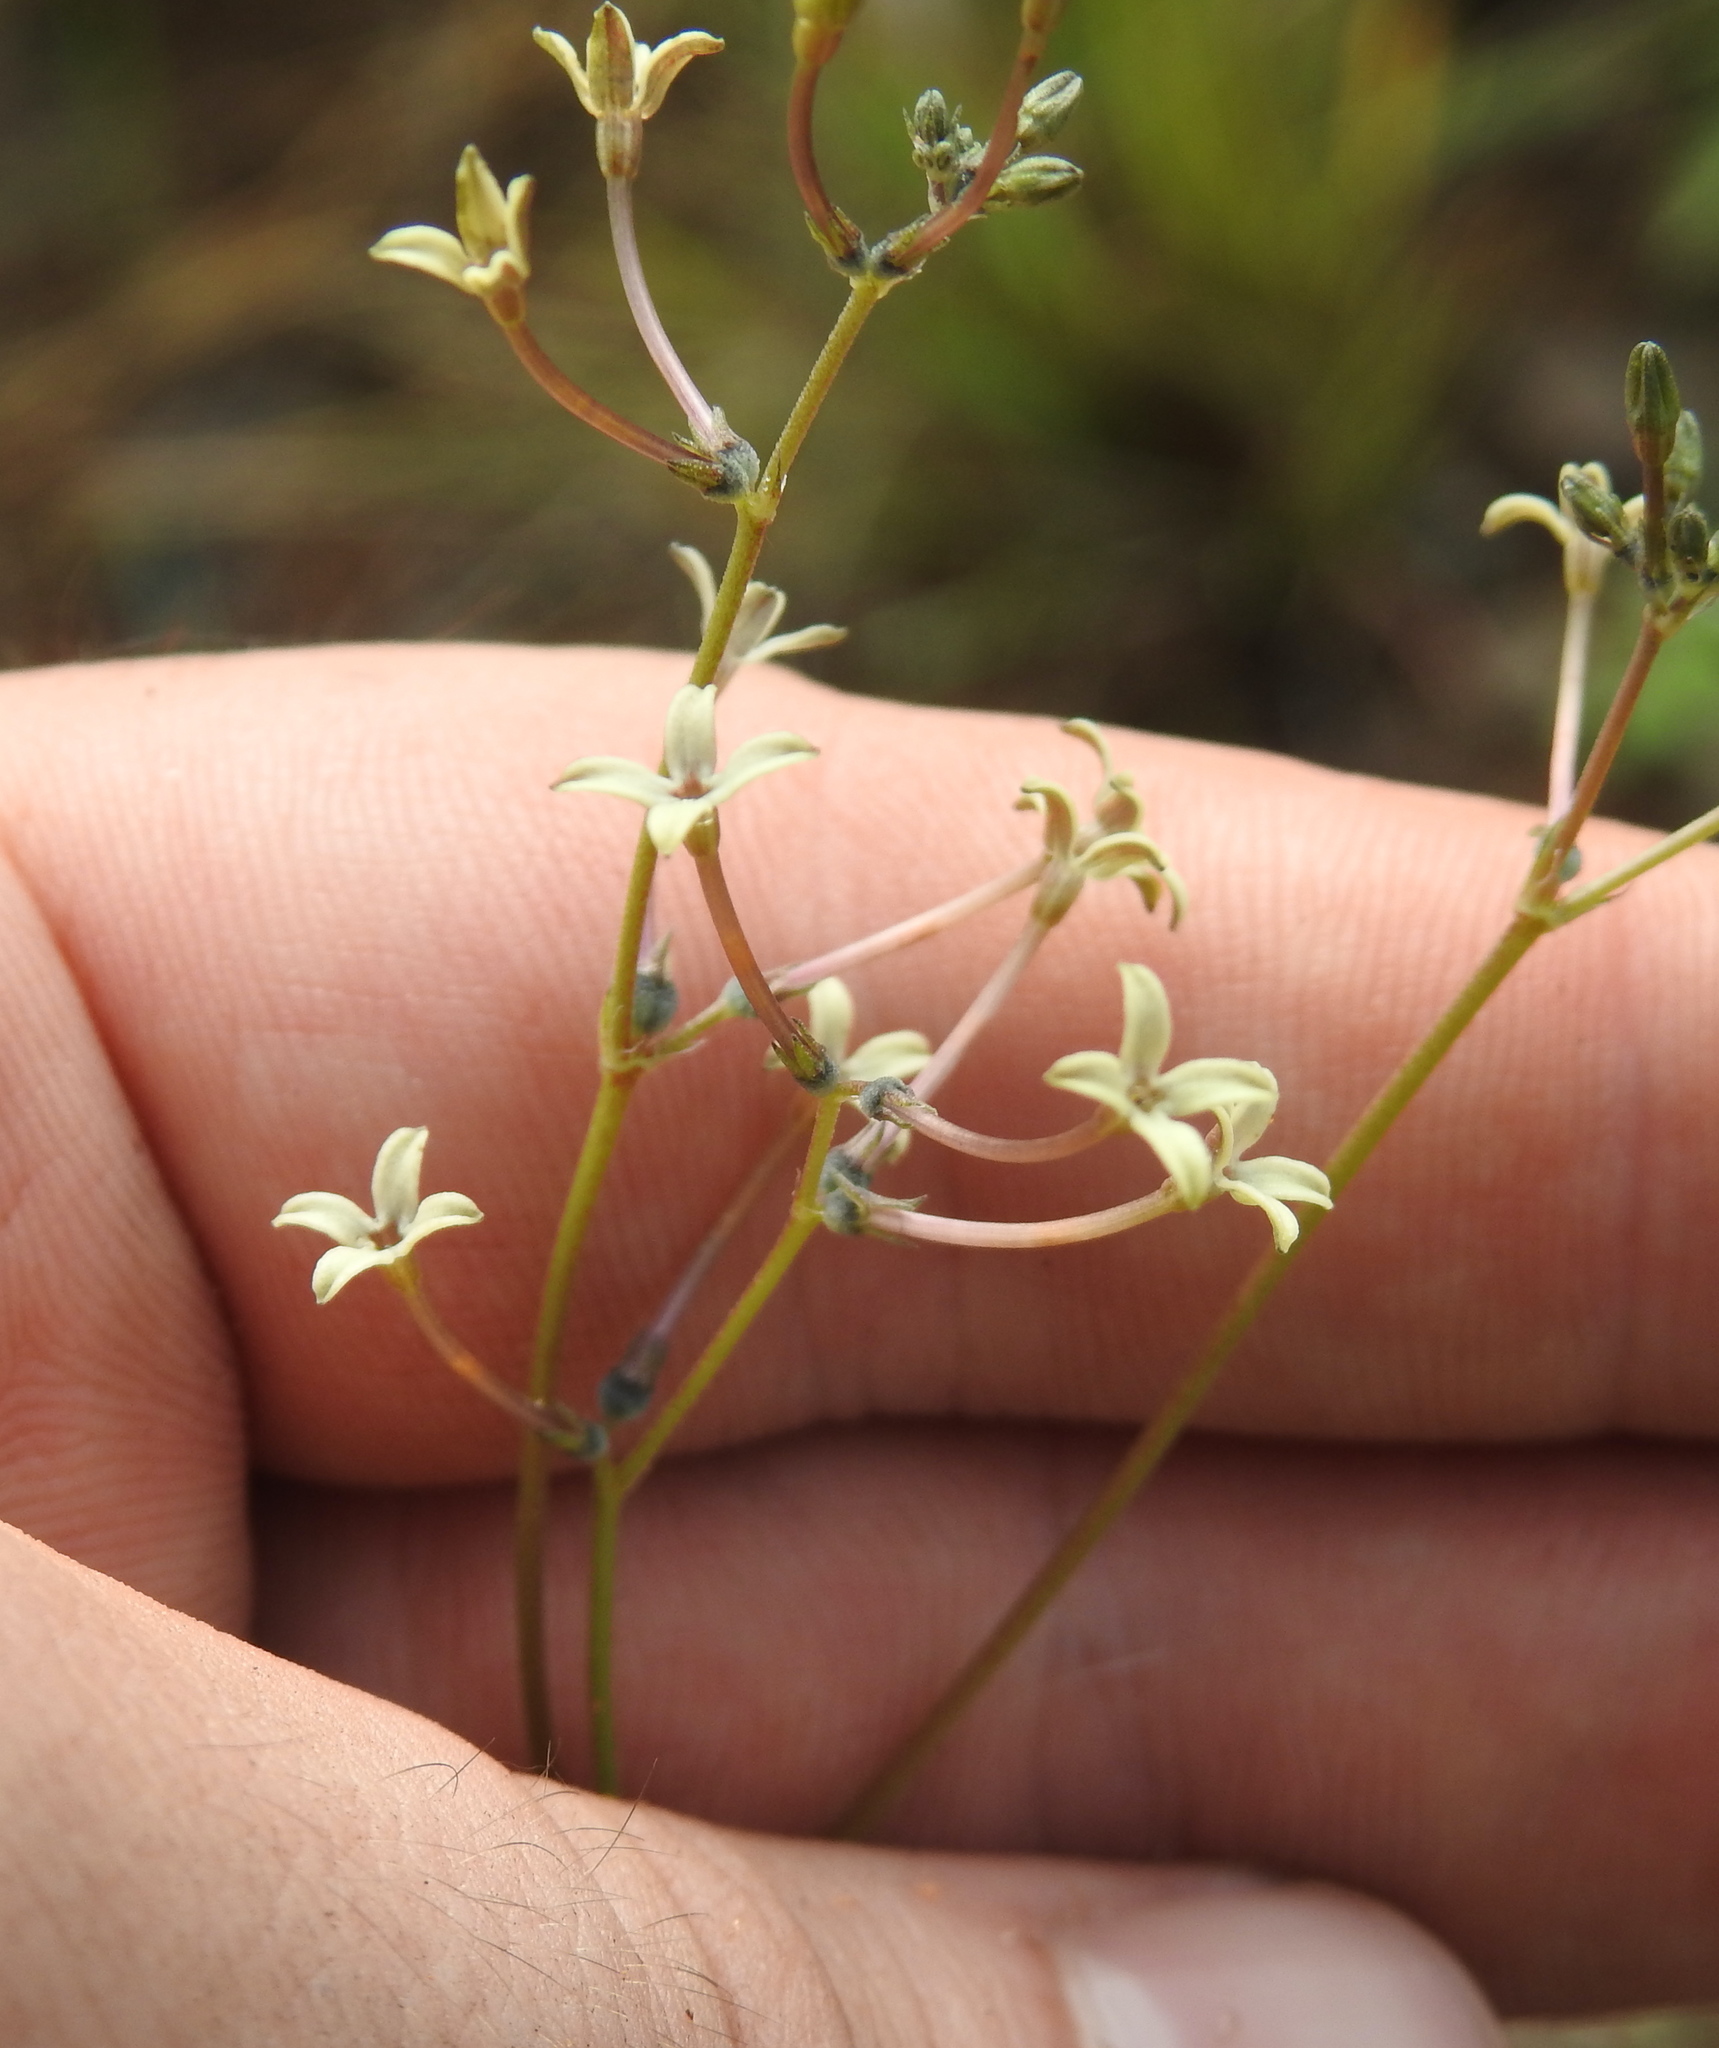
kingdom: Plantae
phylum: Tracheophyta
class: Magnoliopsida
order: Gentianales
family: Rubiaceae
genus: Kohautia
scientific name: Kohautia amatymbica
